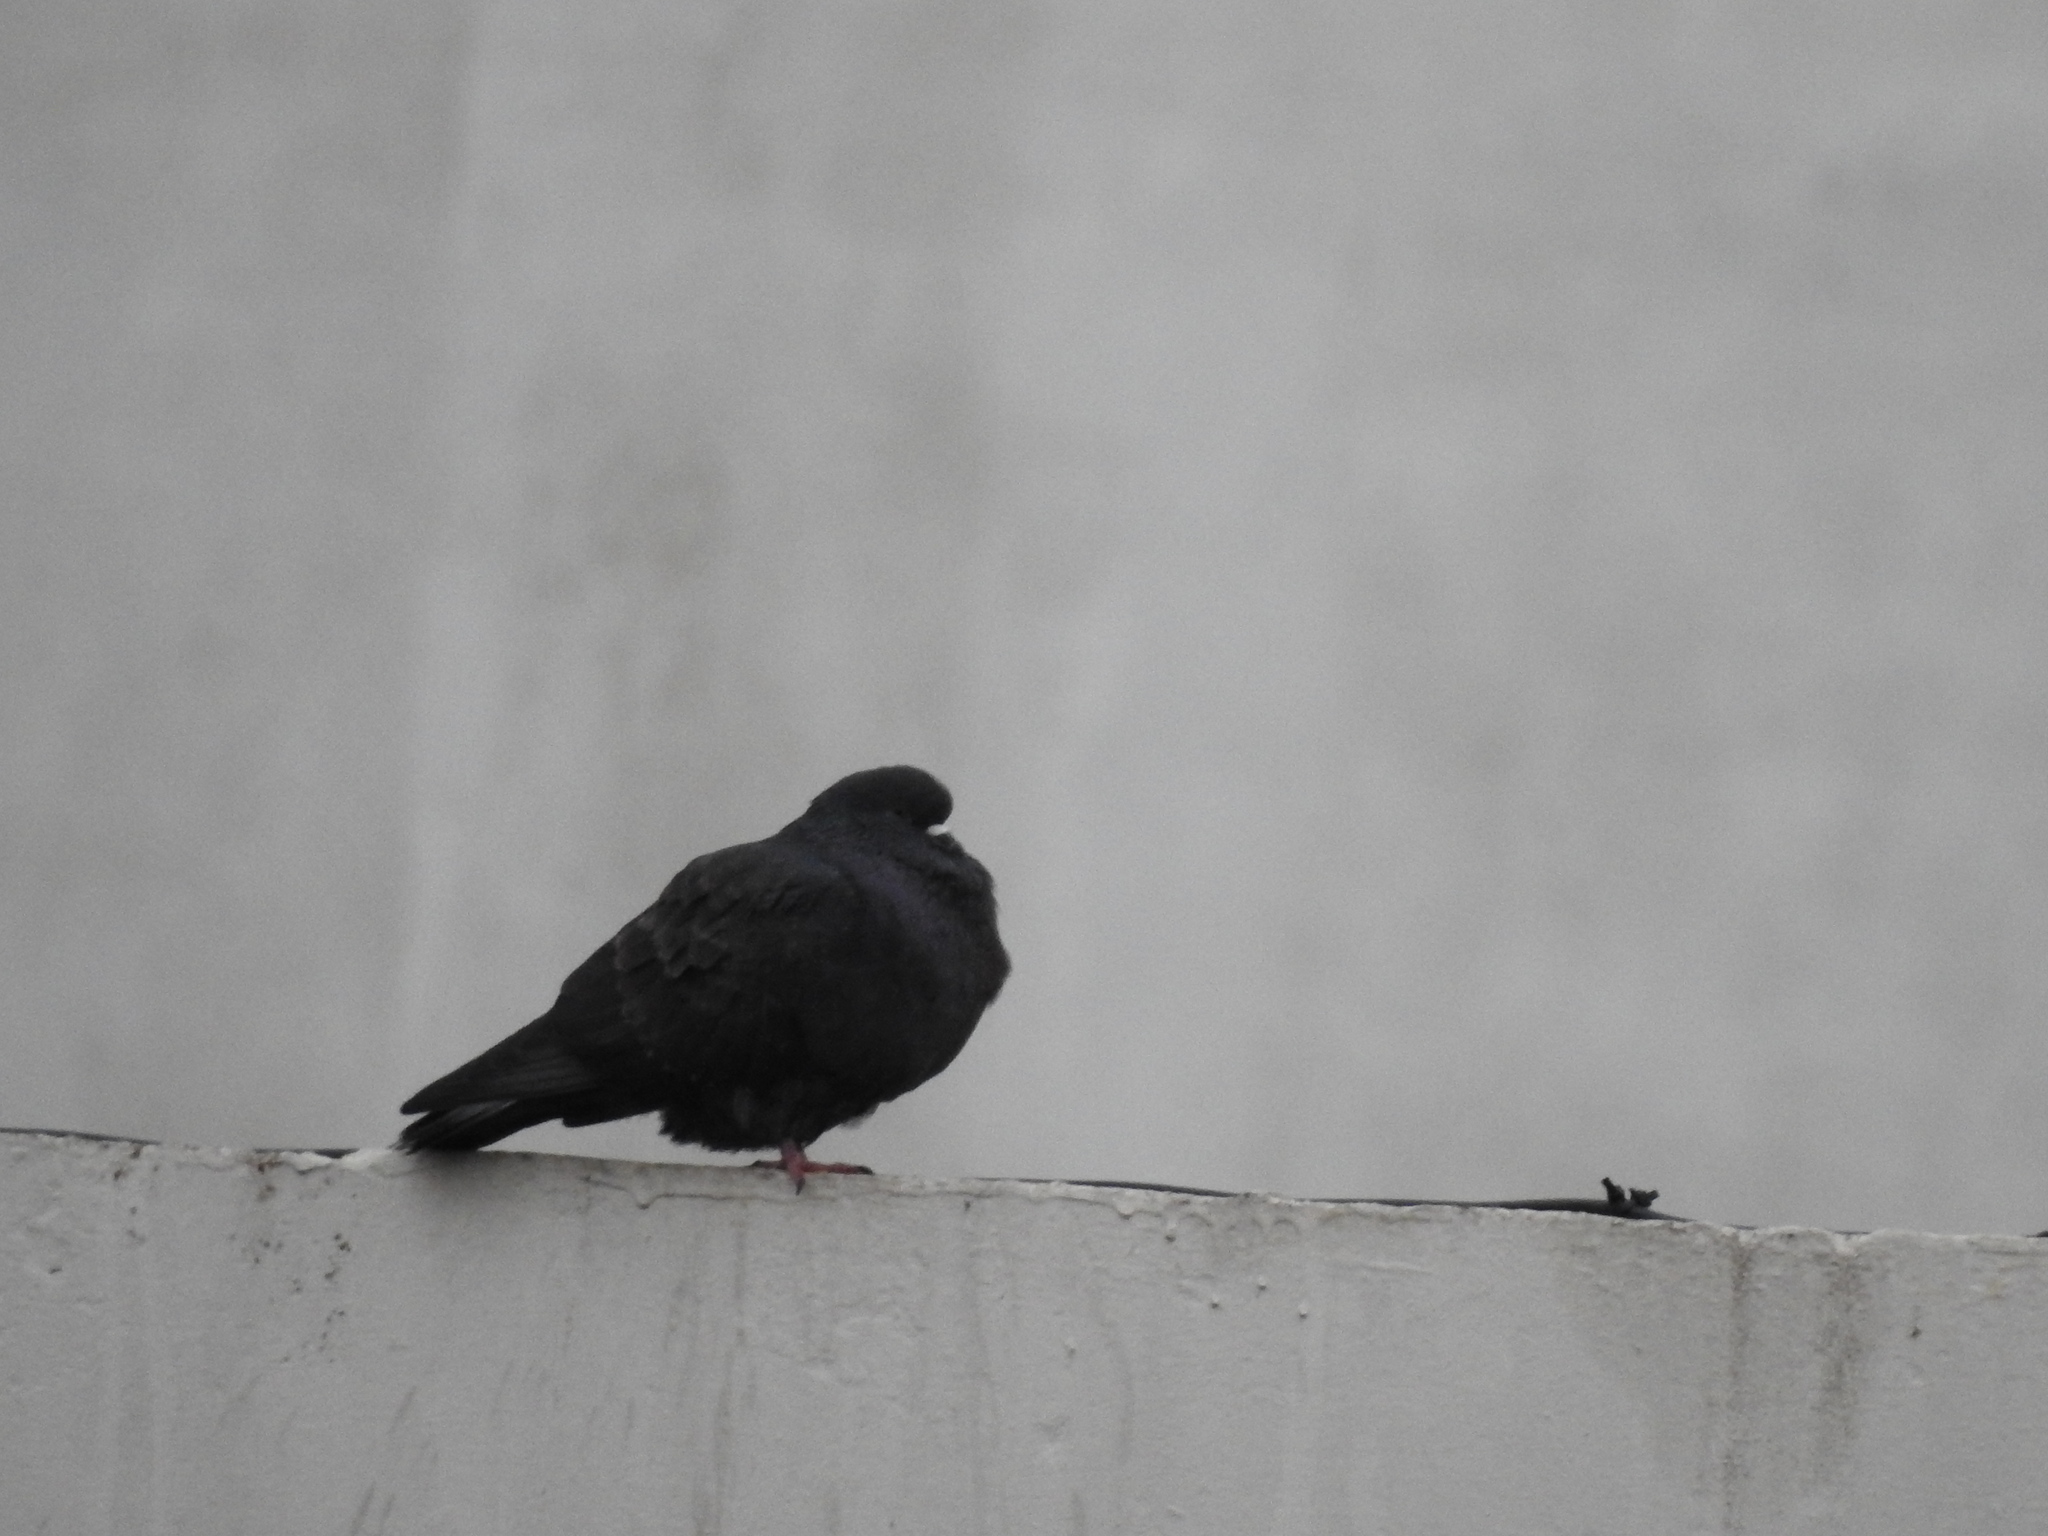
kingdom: Animalia
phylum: Chordata
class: Aves
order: Columbiformes
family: Columbidae
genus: Columba
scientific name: Columba livia
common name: Rock pigeon
